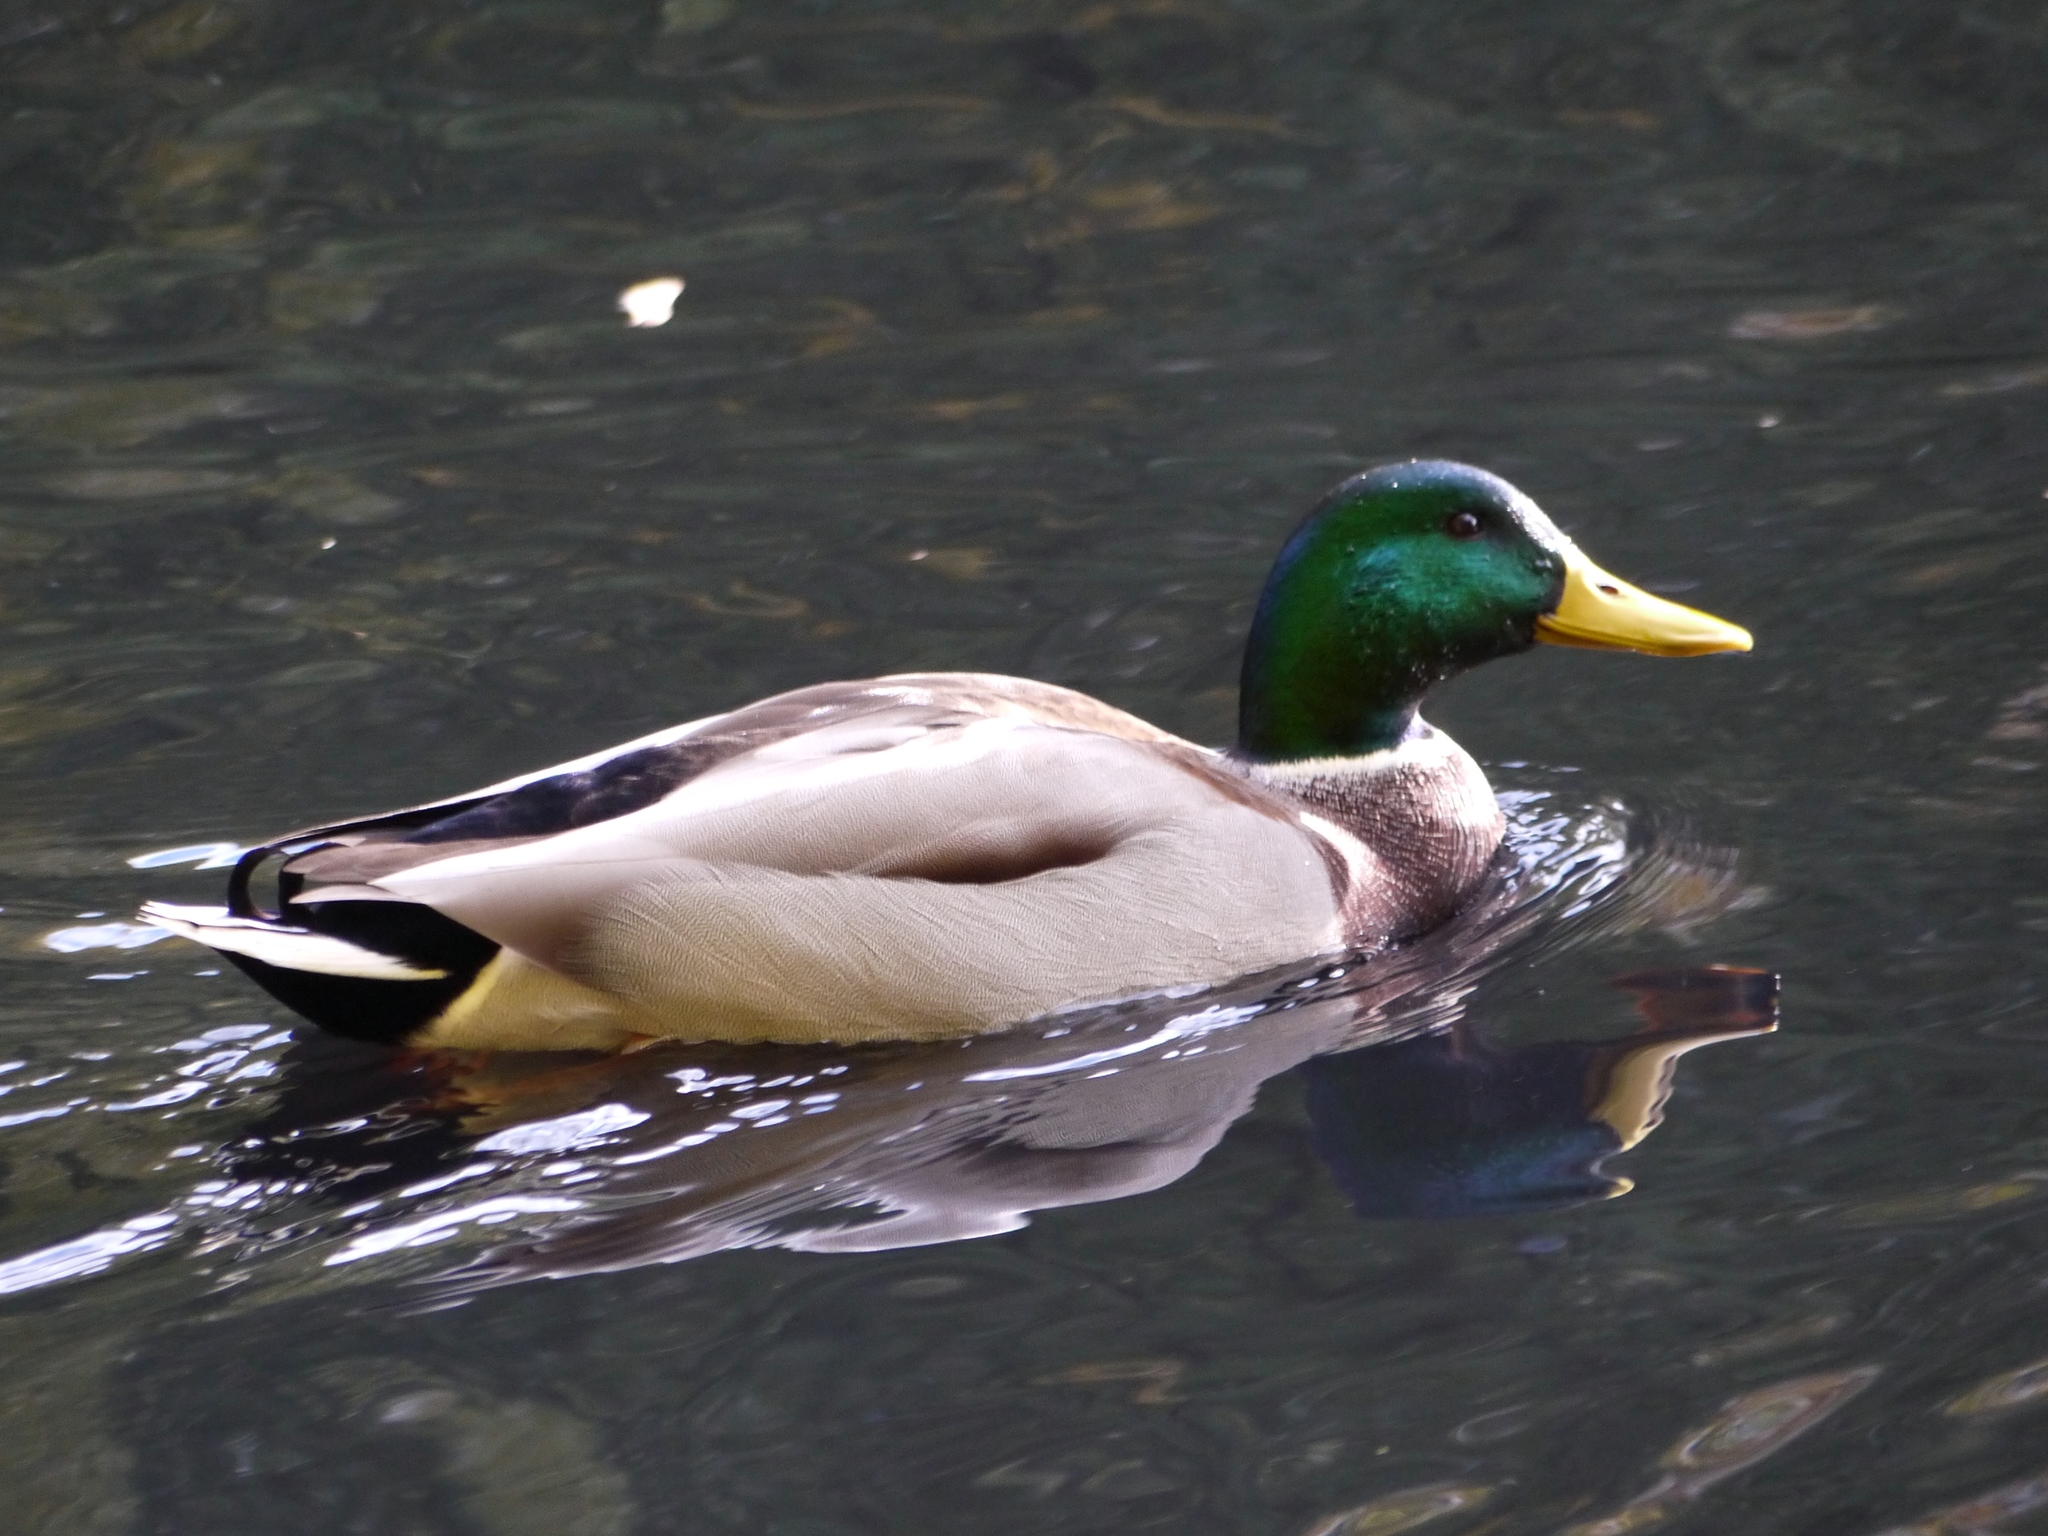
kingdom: Animalia
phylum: Chordata
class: Aves
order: Anseriformes
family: Anatidae
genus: Anas
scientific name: Anas platyrhynchos
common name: Mallard
